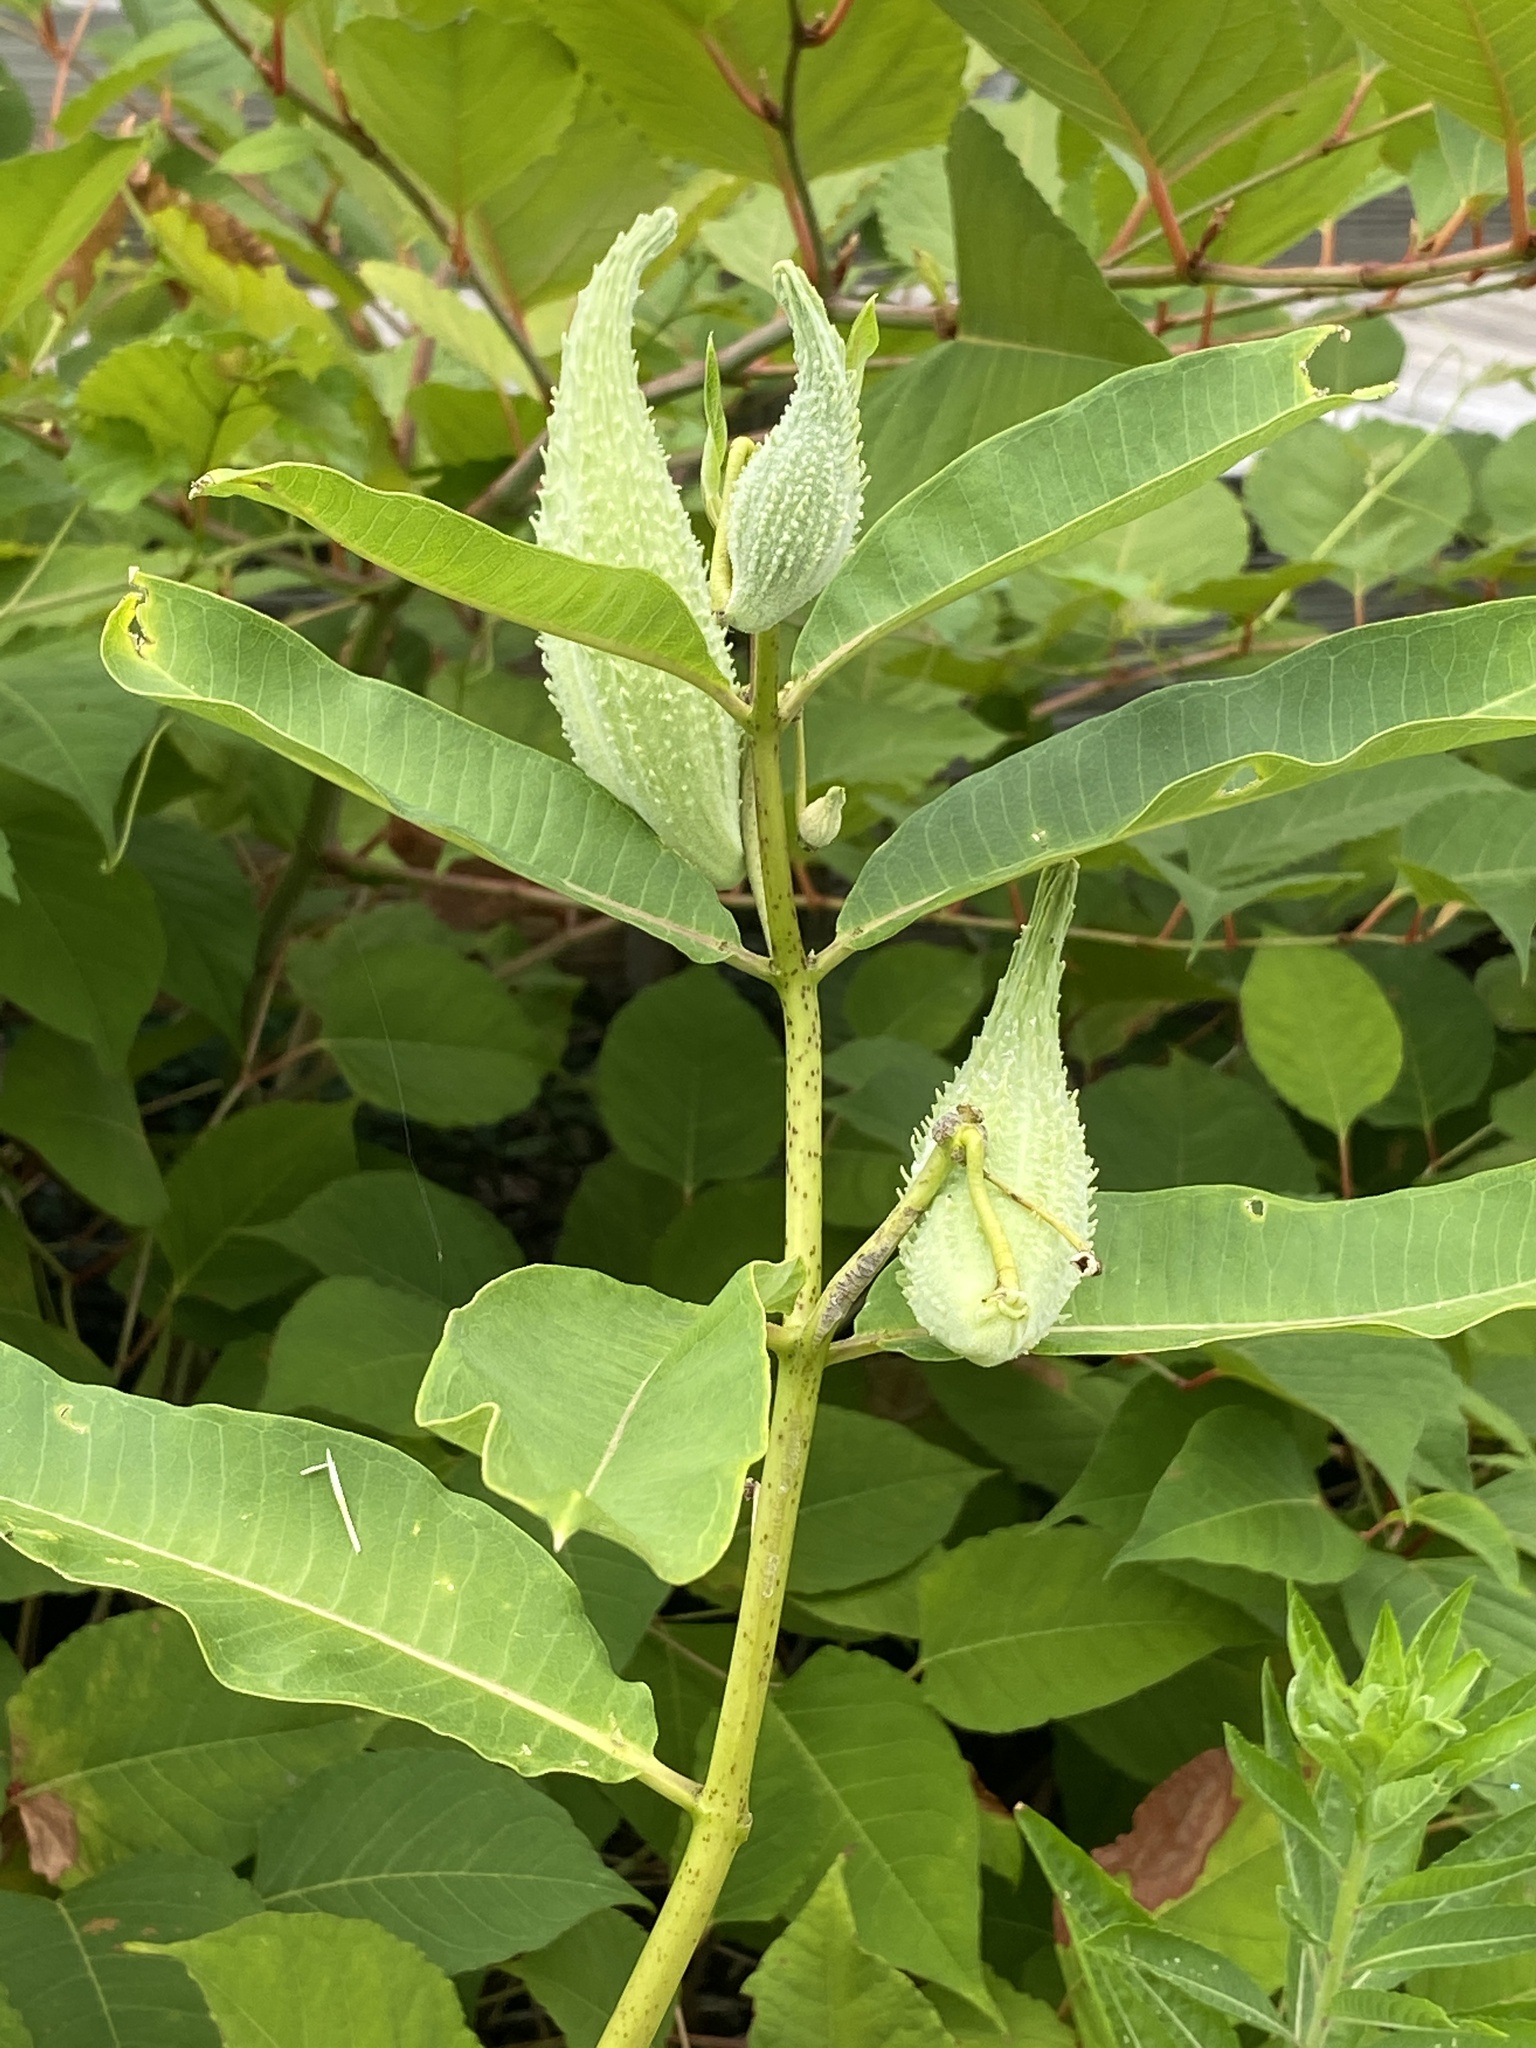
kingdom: Plantae
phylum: Tracheophyta
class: Magnoliopsida
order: Gentianales
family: Apocynaceae
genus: Asclepias
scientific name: Asclepias syriaca
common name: Common milkweed
